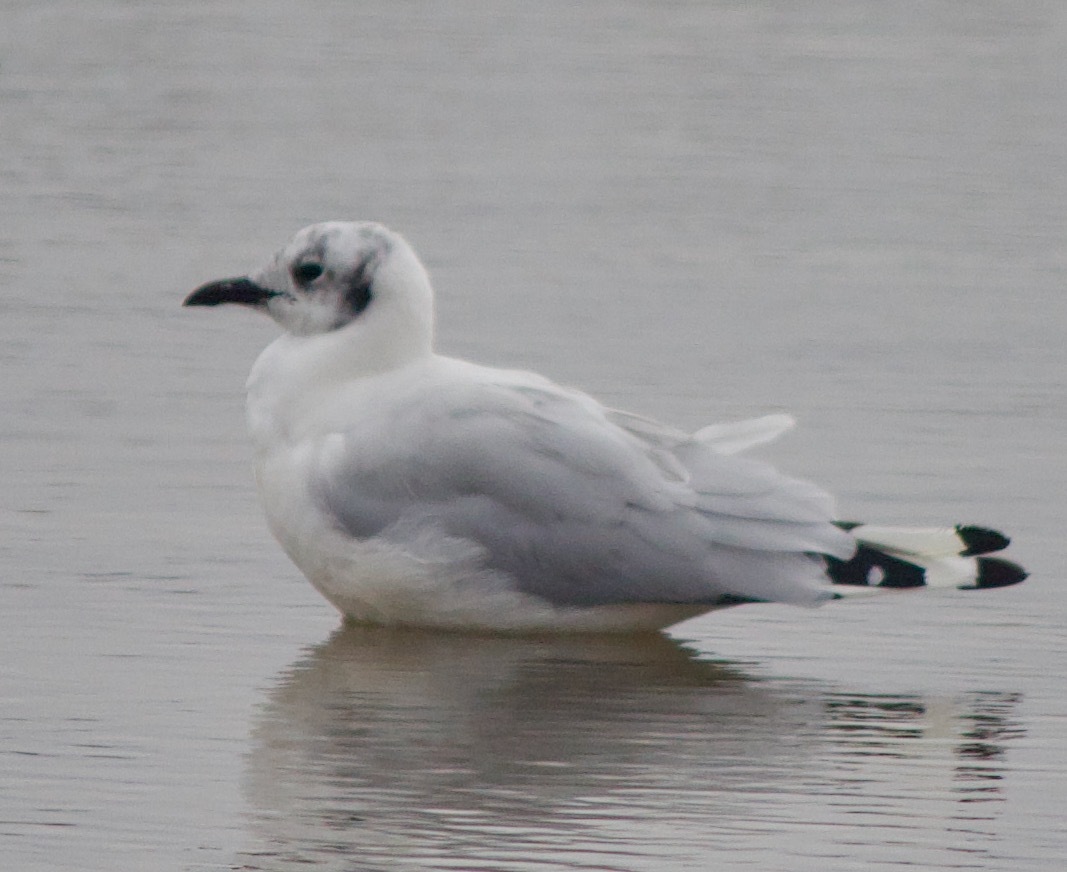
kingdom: Animalia
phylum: Chordata
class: Aves
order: Charadriiformes
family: Laridae
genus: Chroicocephalus
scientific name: Chroicocephalus maculipennis
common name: Brown-hooded gull
